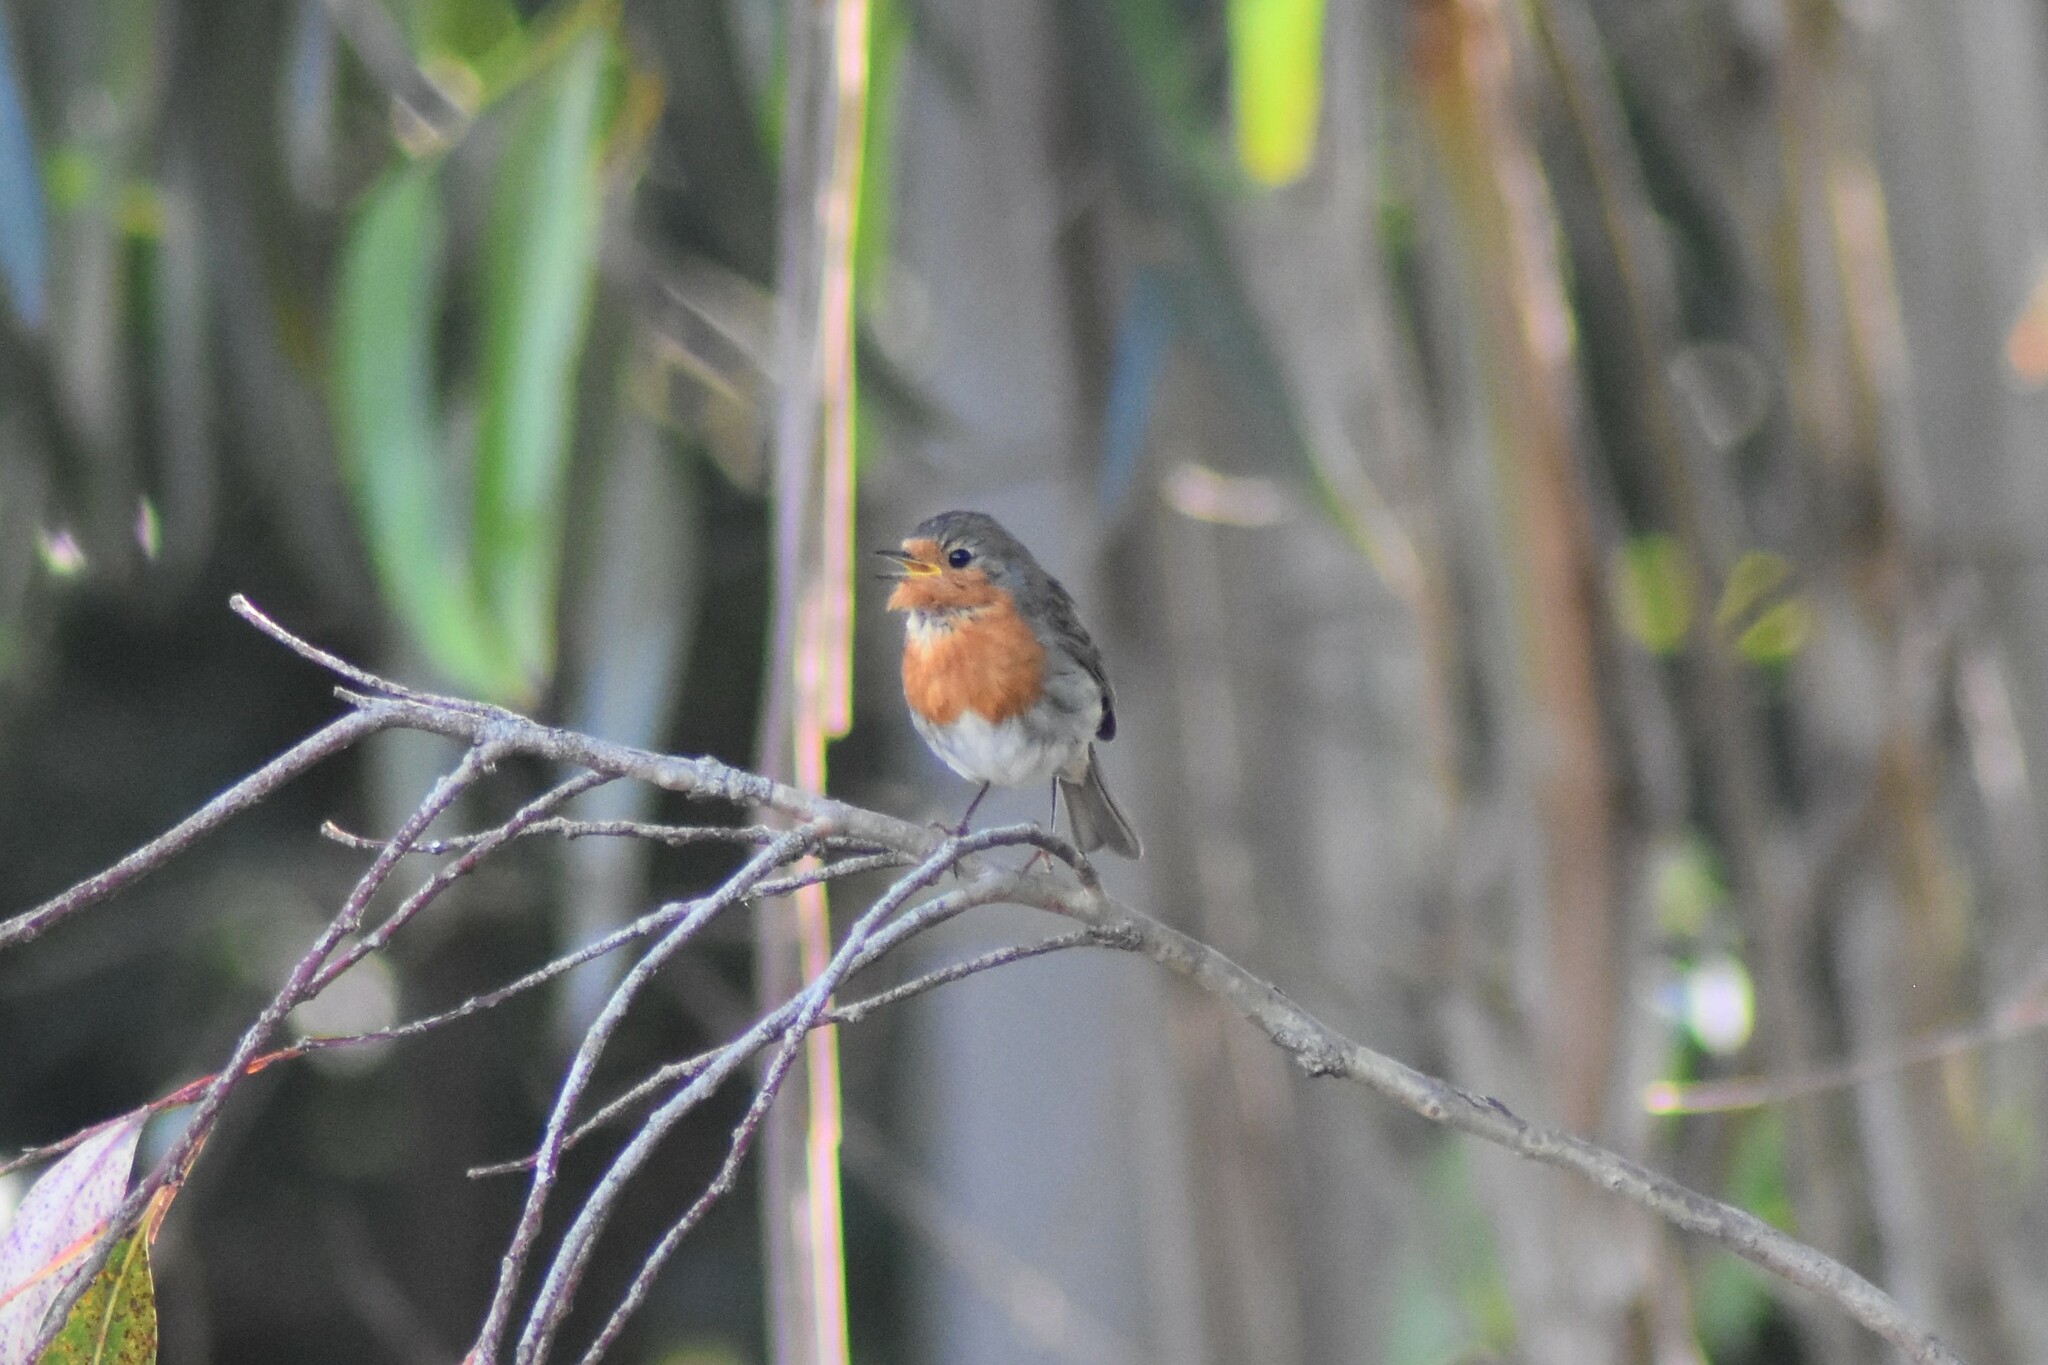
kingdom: Animalia
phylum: Chordata
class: Aves
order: Passeriformes
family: Muscicapidae
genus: Erithacus
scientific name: Erithacus rubecula
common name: European robin
